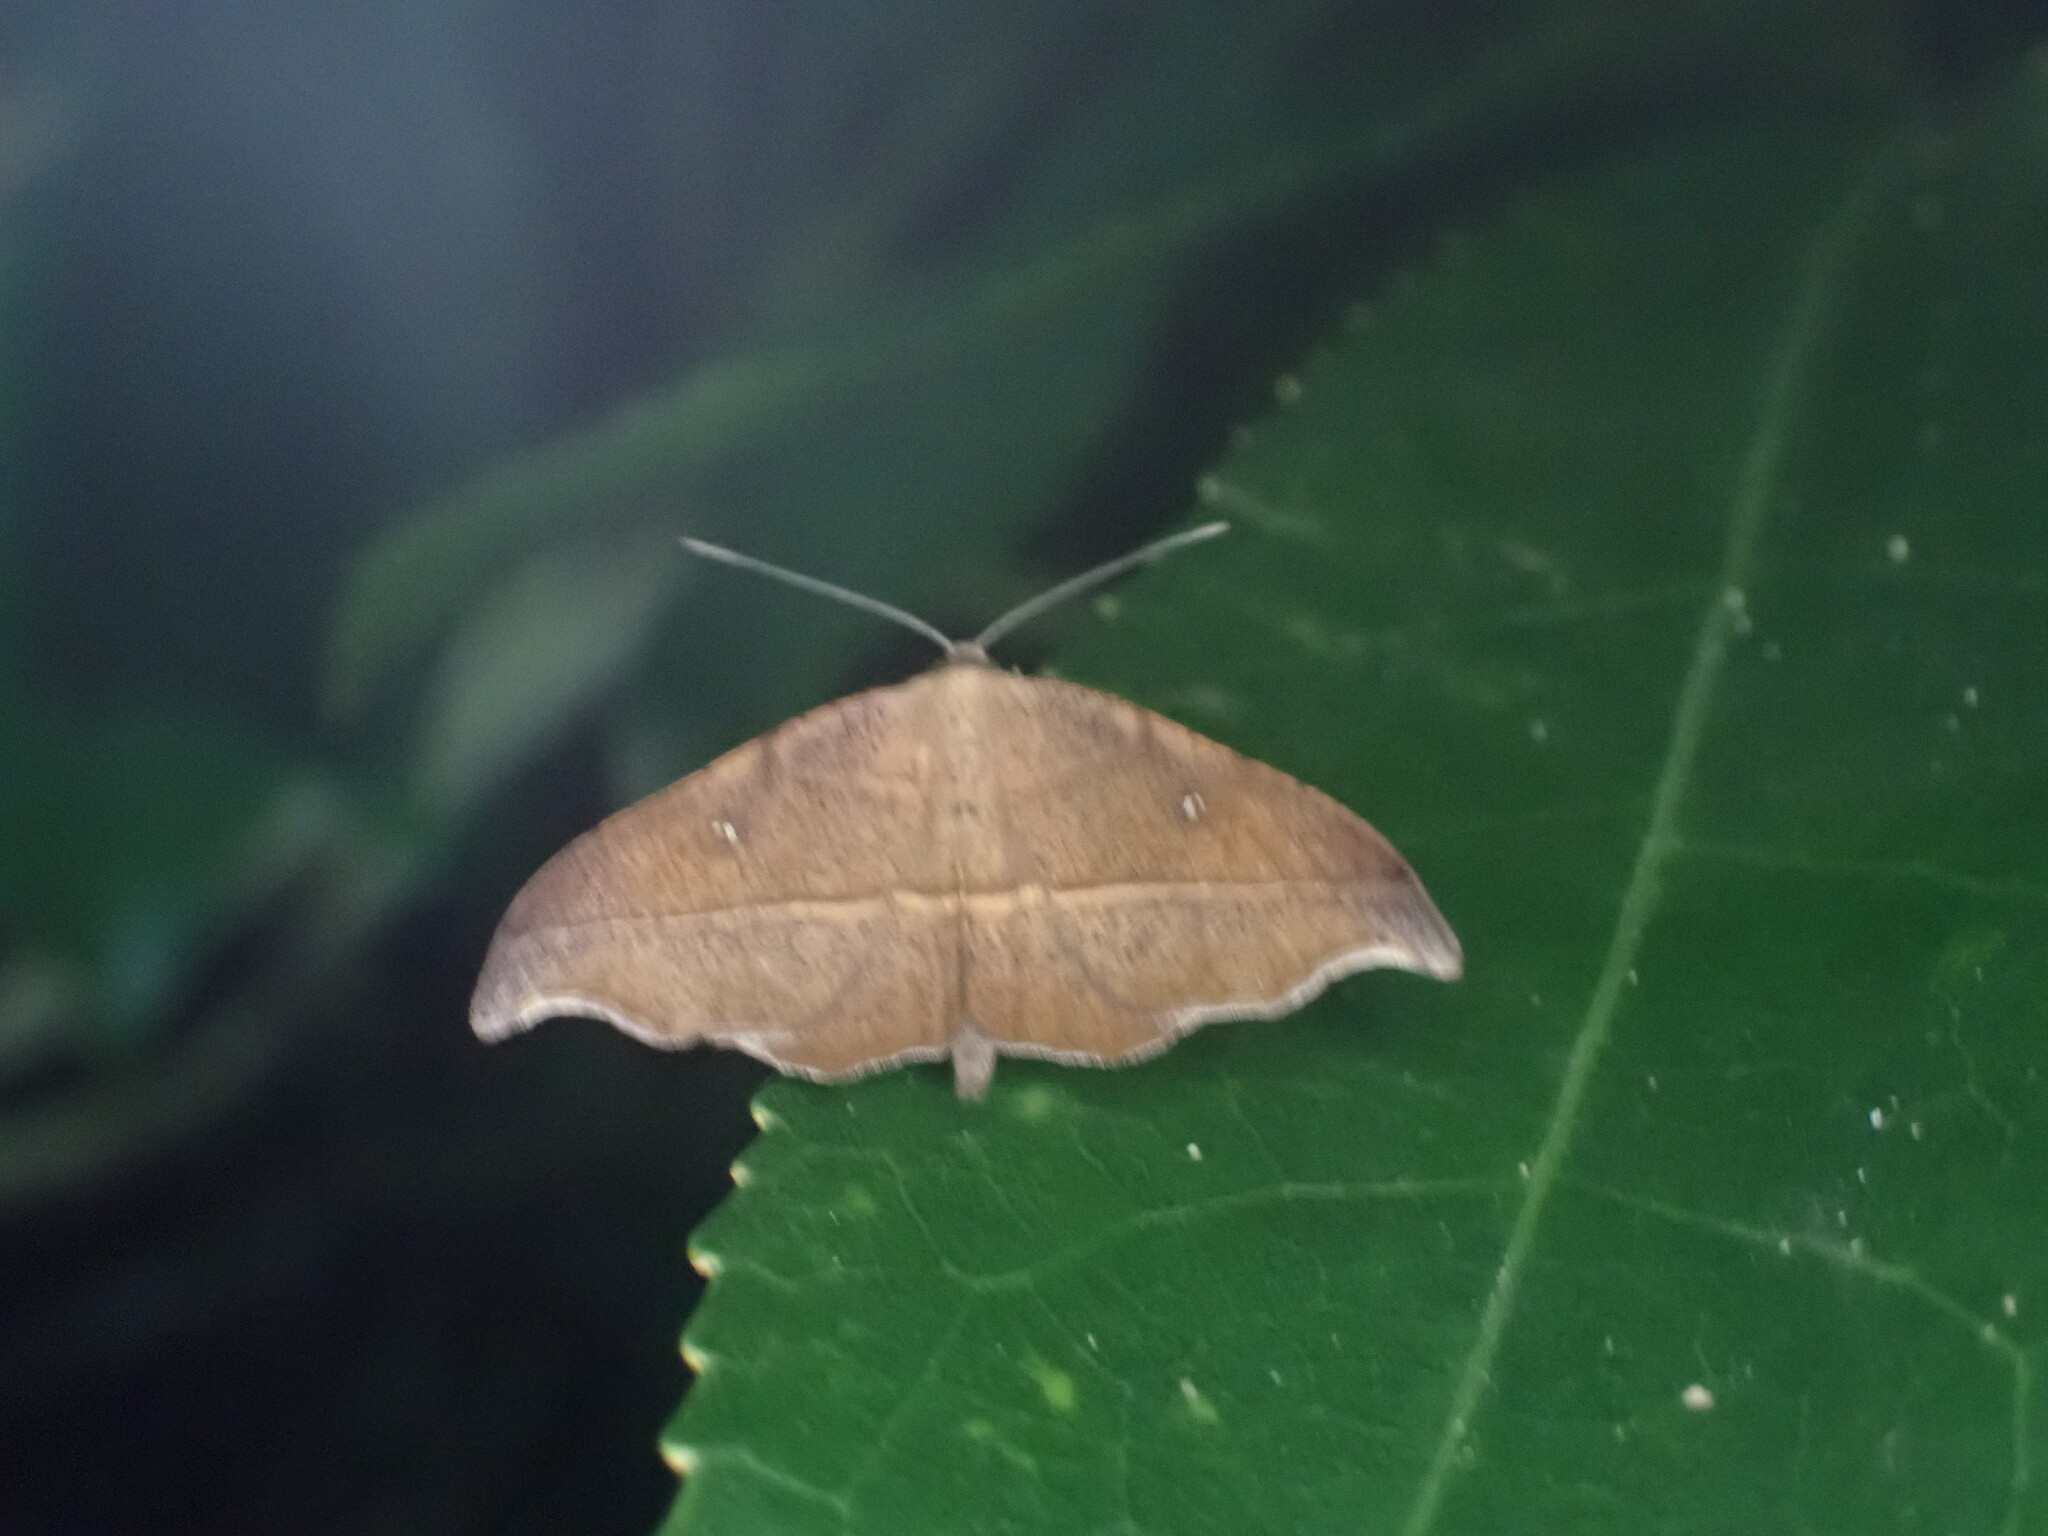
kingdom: Animalia
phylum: Arthropoda
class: Insecta
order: Lepidoptera
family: Geometridae
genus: Sarisa
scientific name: Sarisa muriferata
